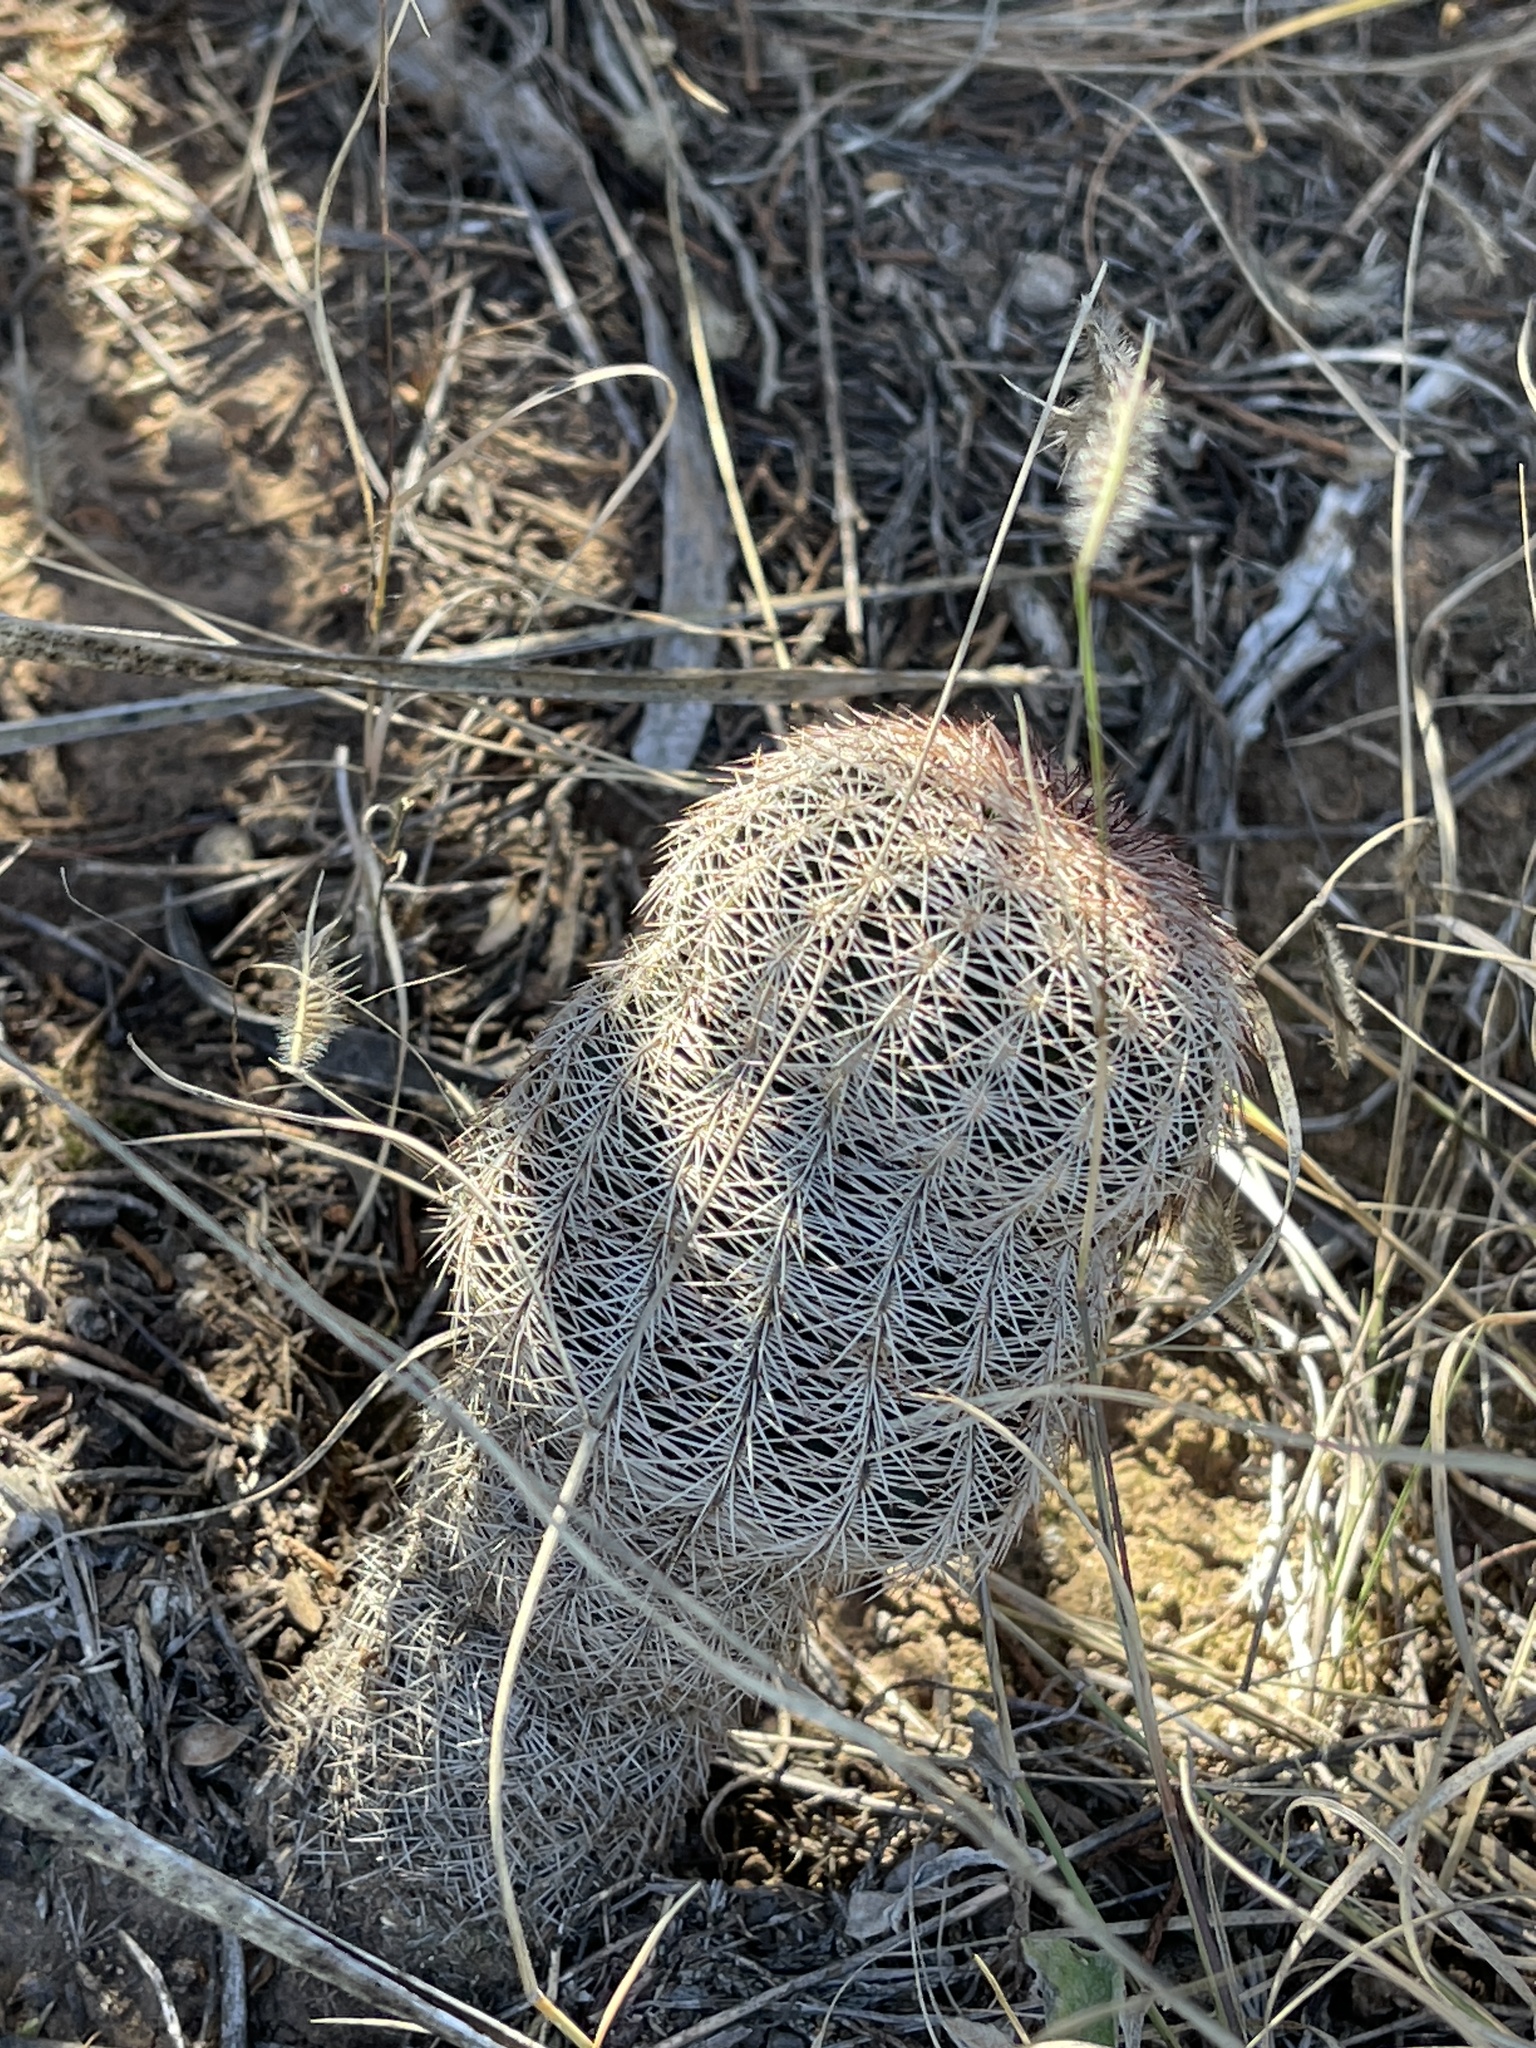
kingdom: Plantae
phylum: Tracheophyta
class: Magnoliopsida
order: Caryophyllales
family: Cactaceae
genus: Echinocereus
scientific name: Echinocereus reichenbachii
